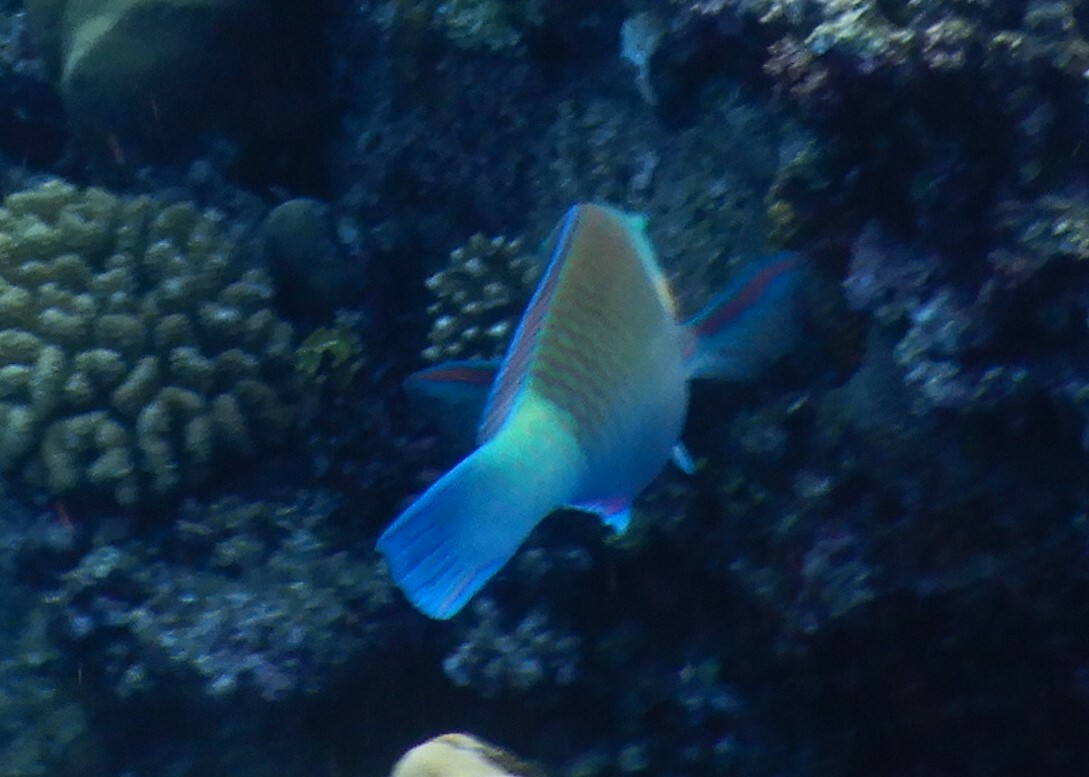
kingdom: Animalia
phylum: Chordata
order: Perciformes
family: Scaridae
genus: Chlorurus
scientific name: Chlorurus sordidus
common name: Bullethead parrotfish
